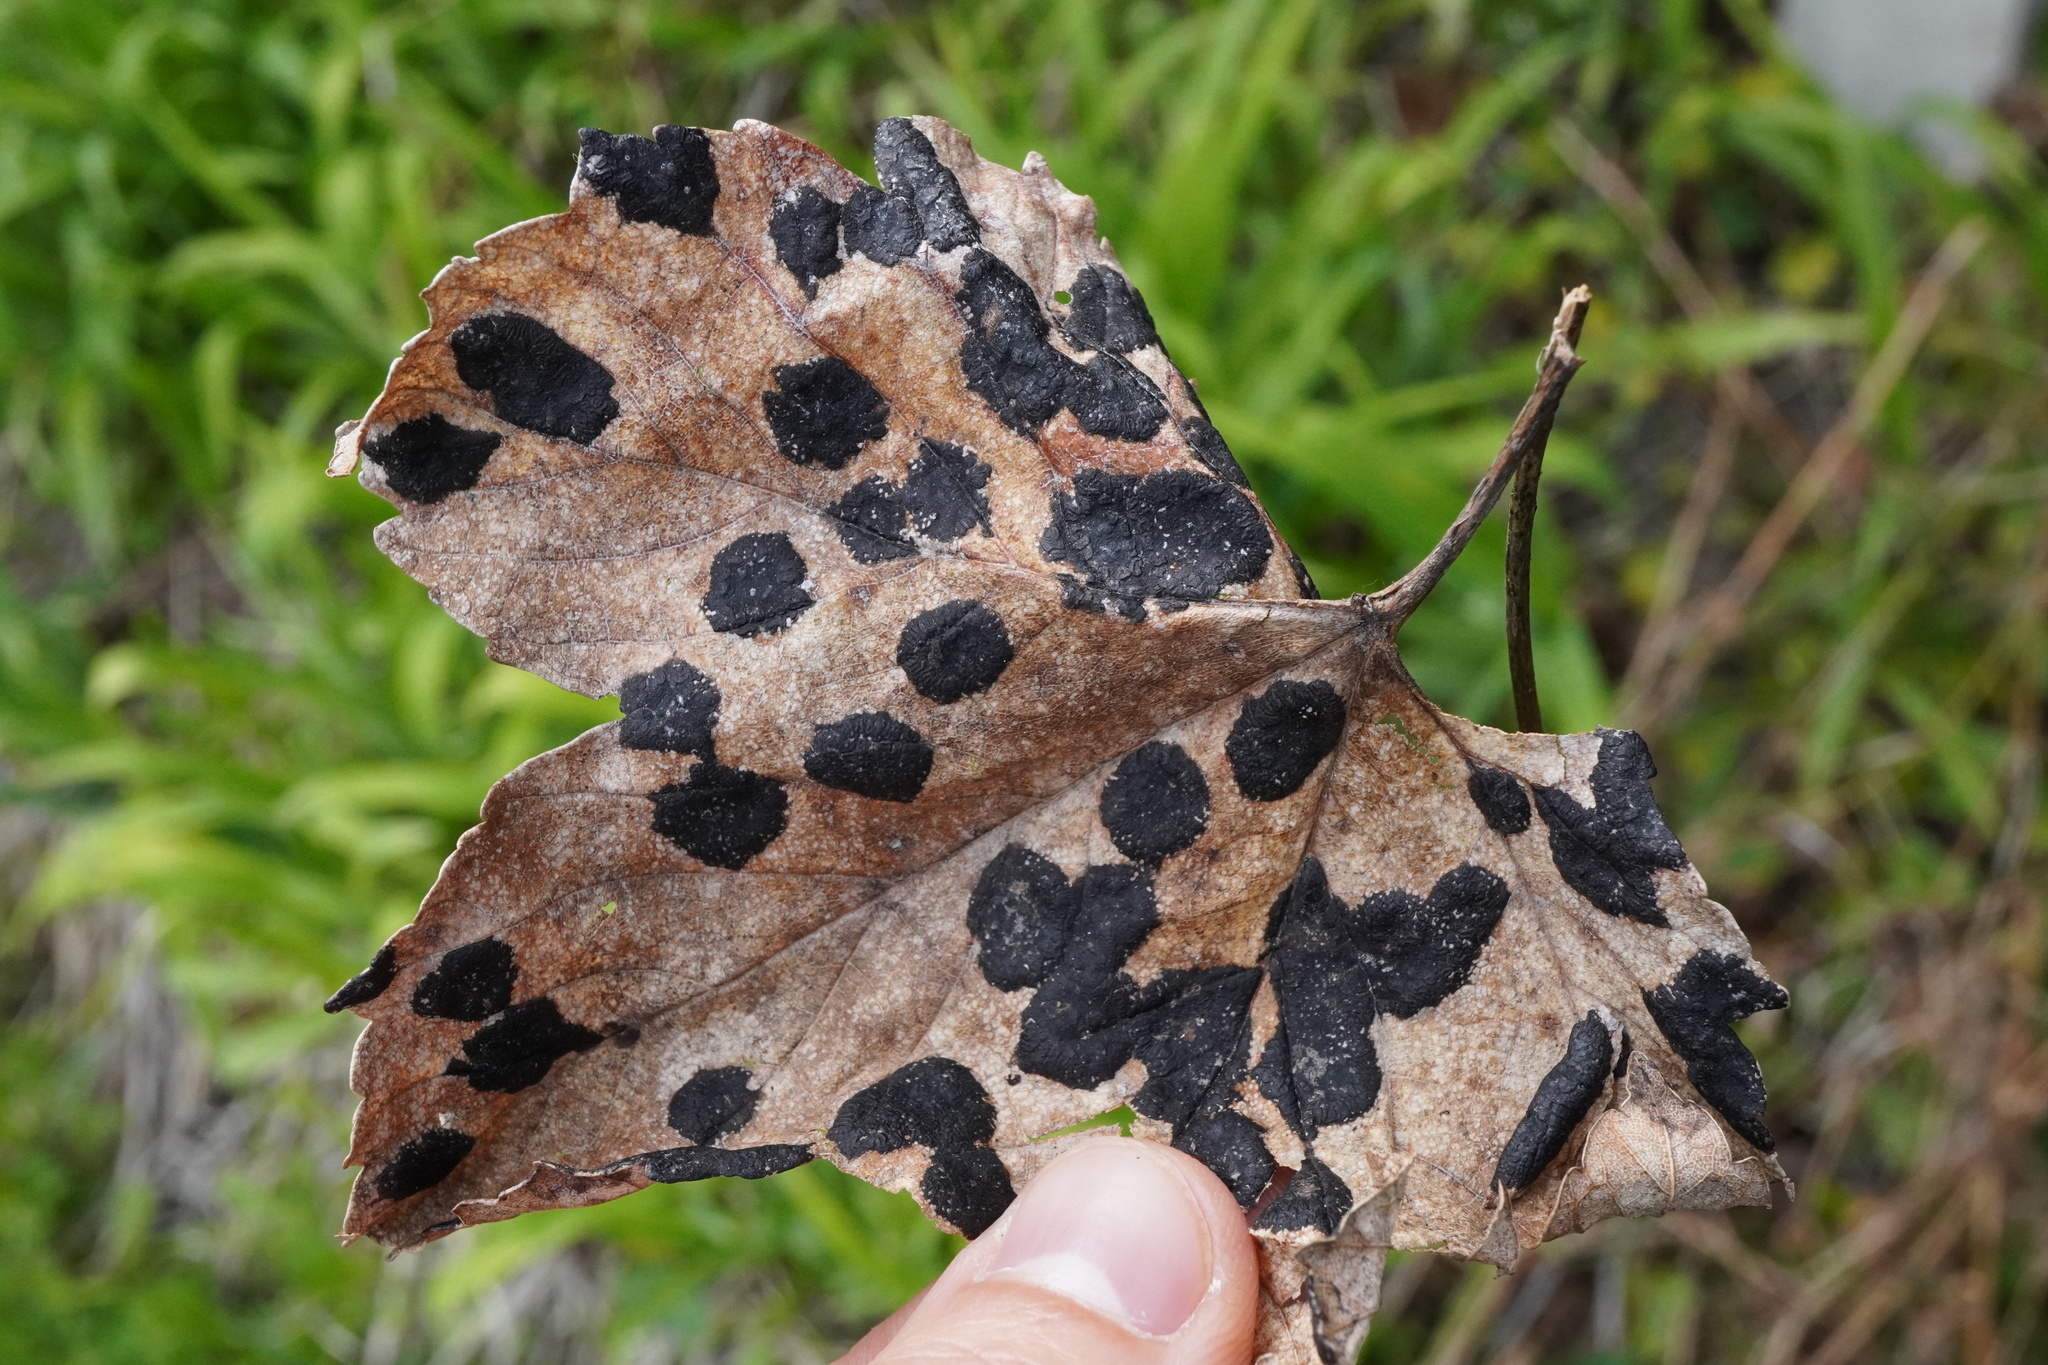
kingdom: Fungi
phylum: Ascomycota
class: Leotiomycetes
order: Rhytismatales
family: Rhytismataceae
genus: Rhytisma
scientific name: Rhytisma acerinum
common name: European tar spot
